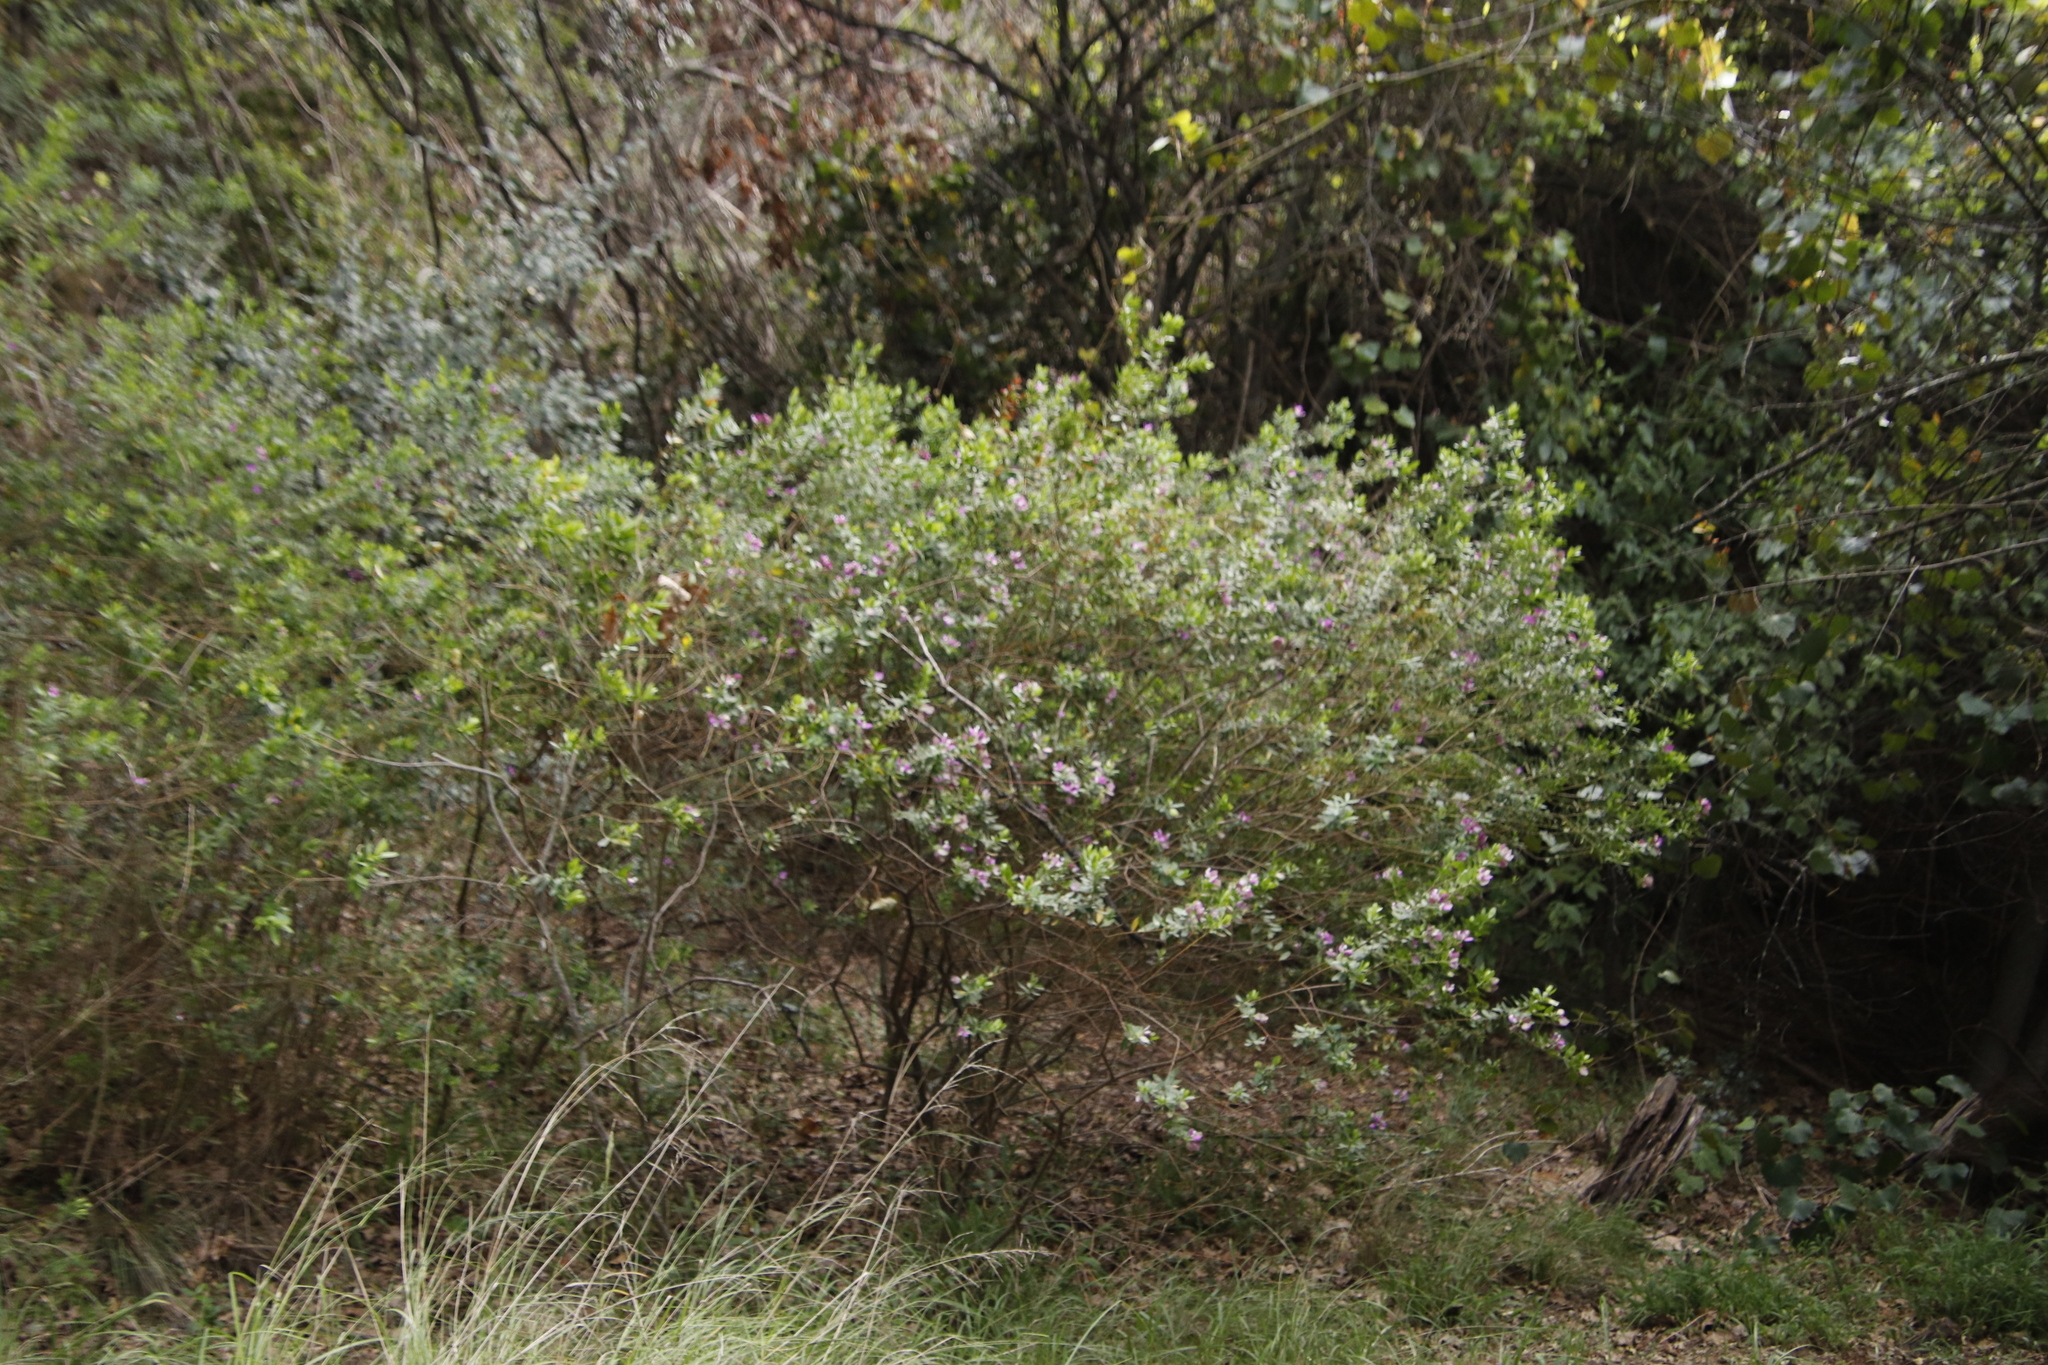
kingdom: Plantae
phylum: Tracheophyta
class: Magnoliopsida
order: Fabales
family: Polygalaceae
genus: Polygala
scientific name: Polygala myrtifolia
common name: Myrtle-leaf milkwort
